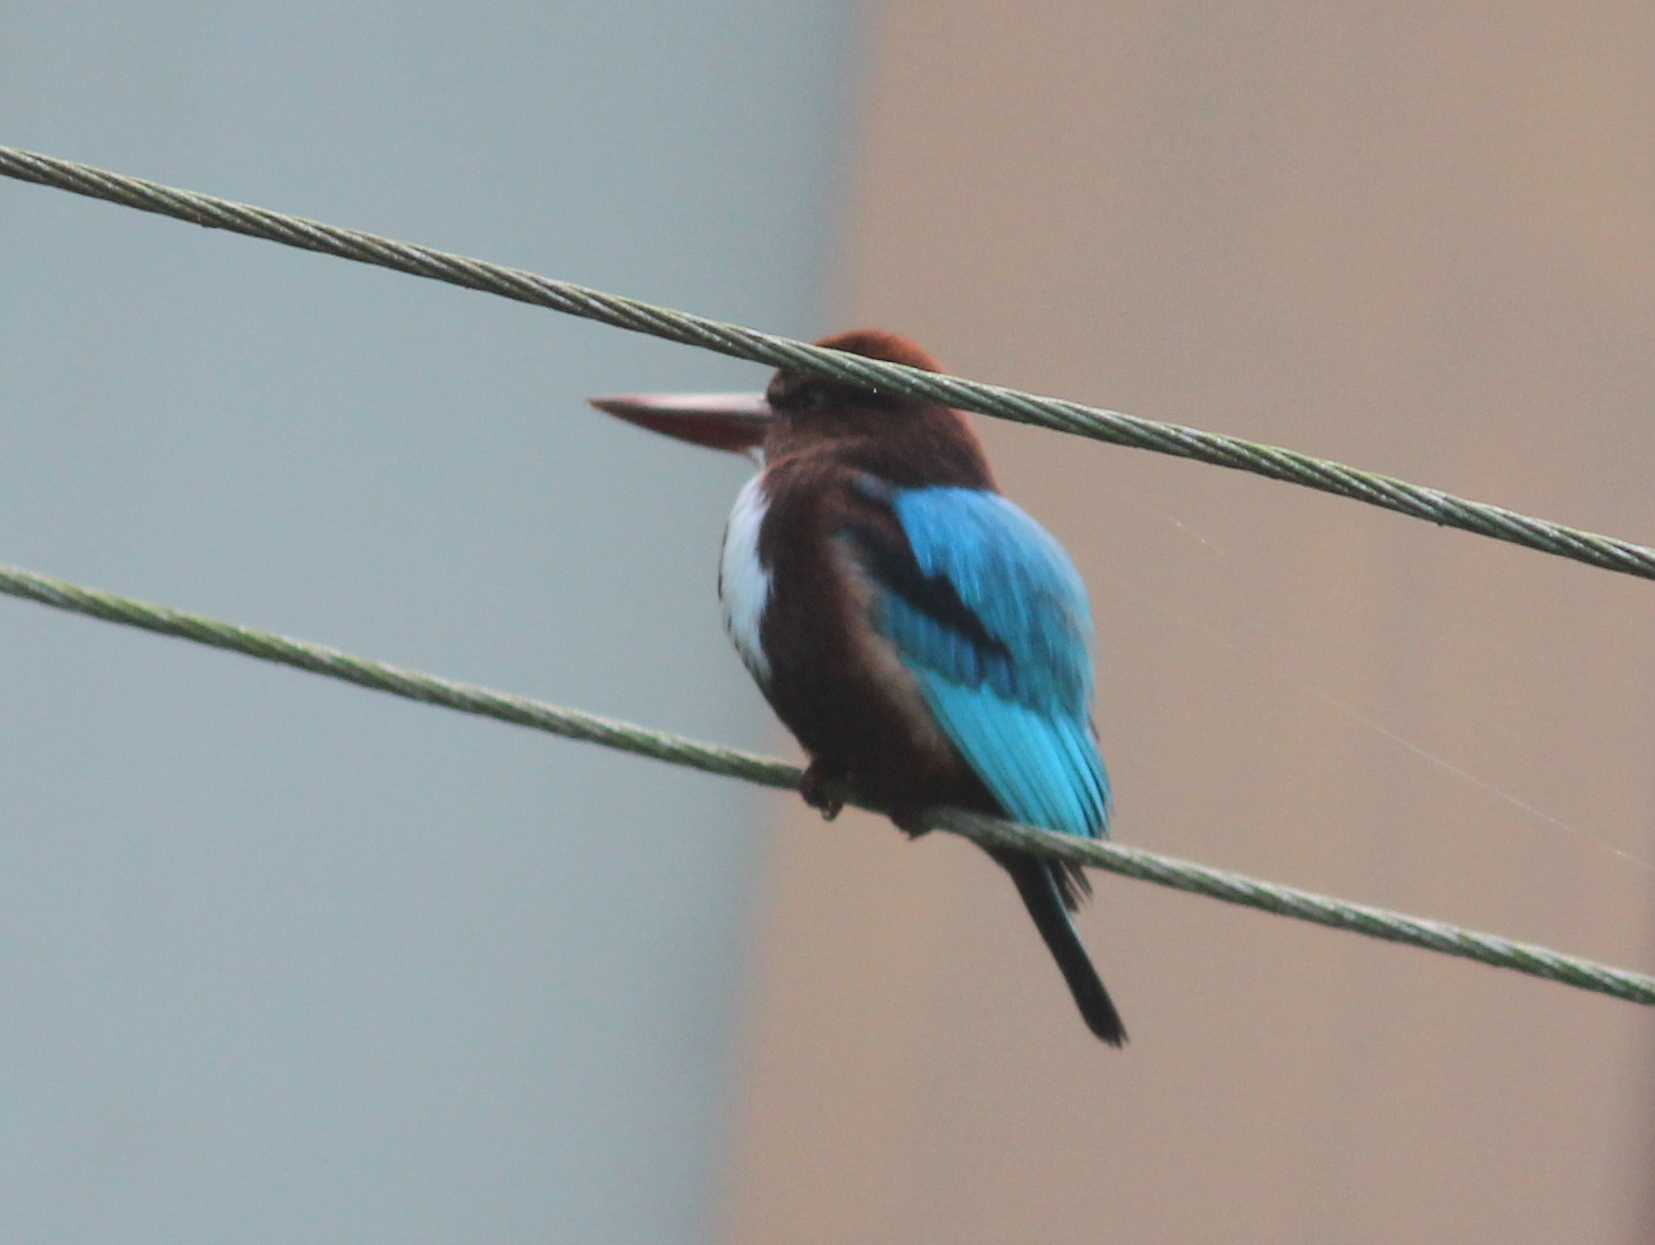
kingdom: Animalia
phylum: Chordata
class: Aves
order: Coraciiformes
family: Alcedinidae
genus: Halcyon
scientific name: Halcyon smyrnensis
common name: White-throated kingfisher
